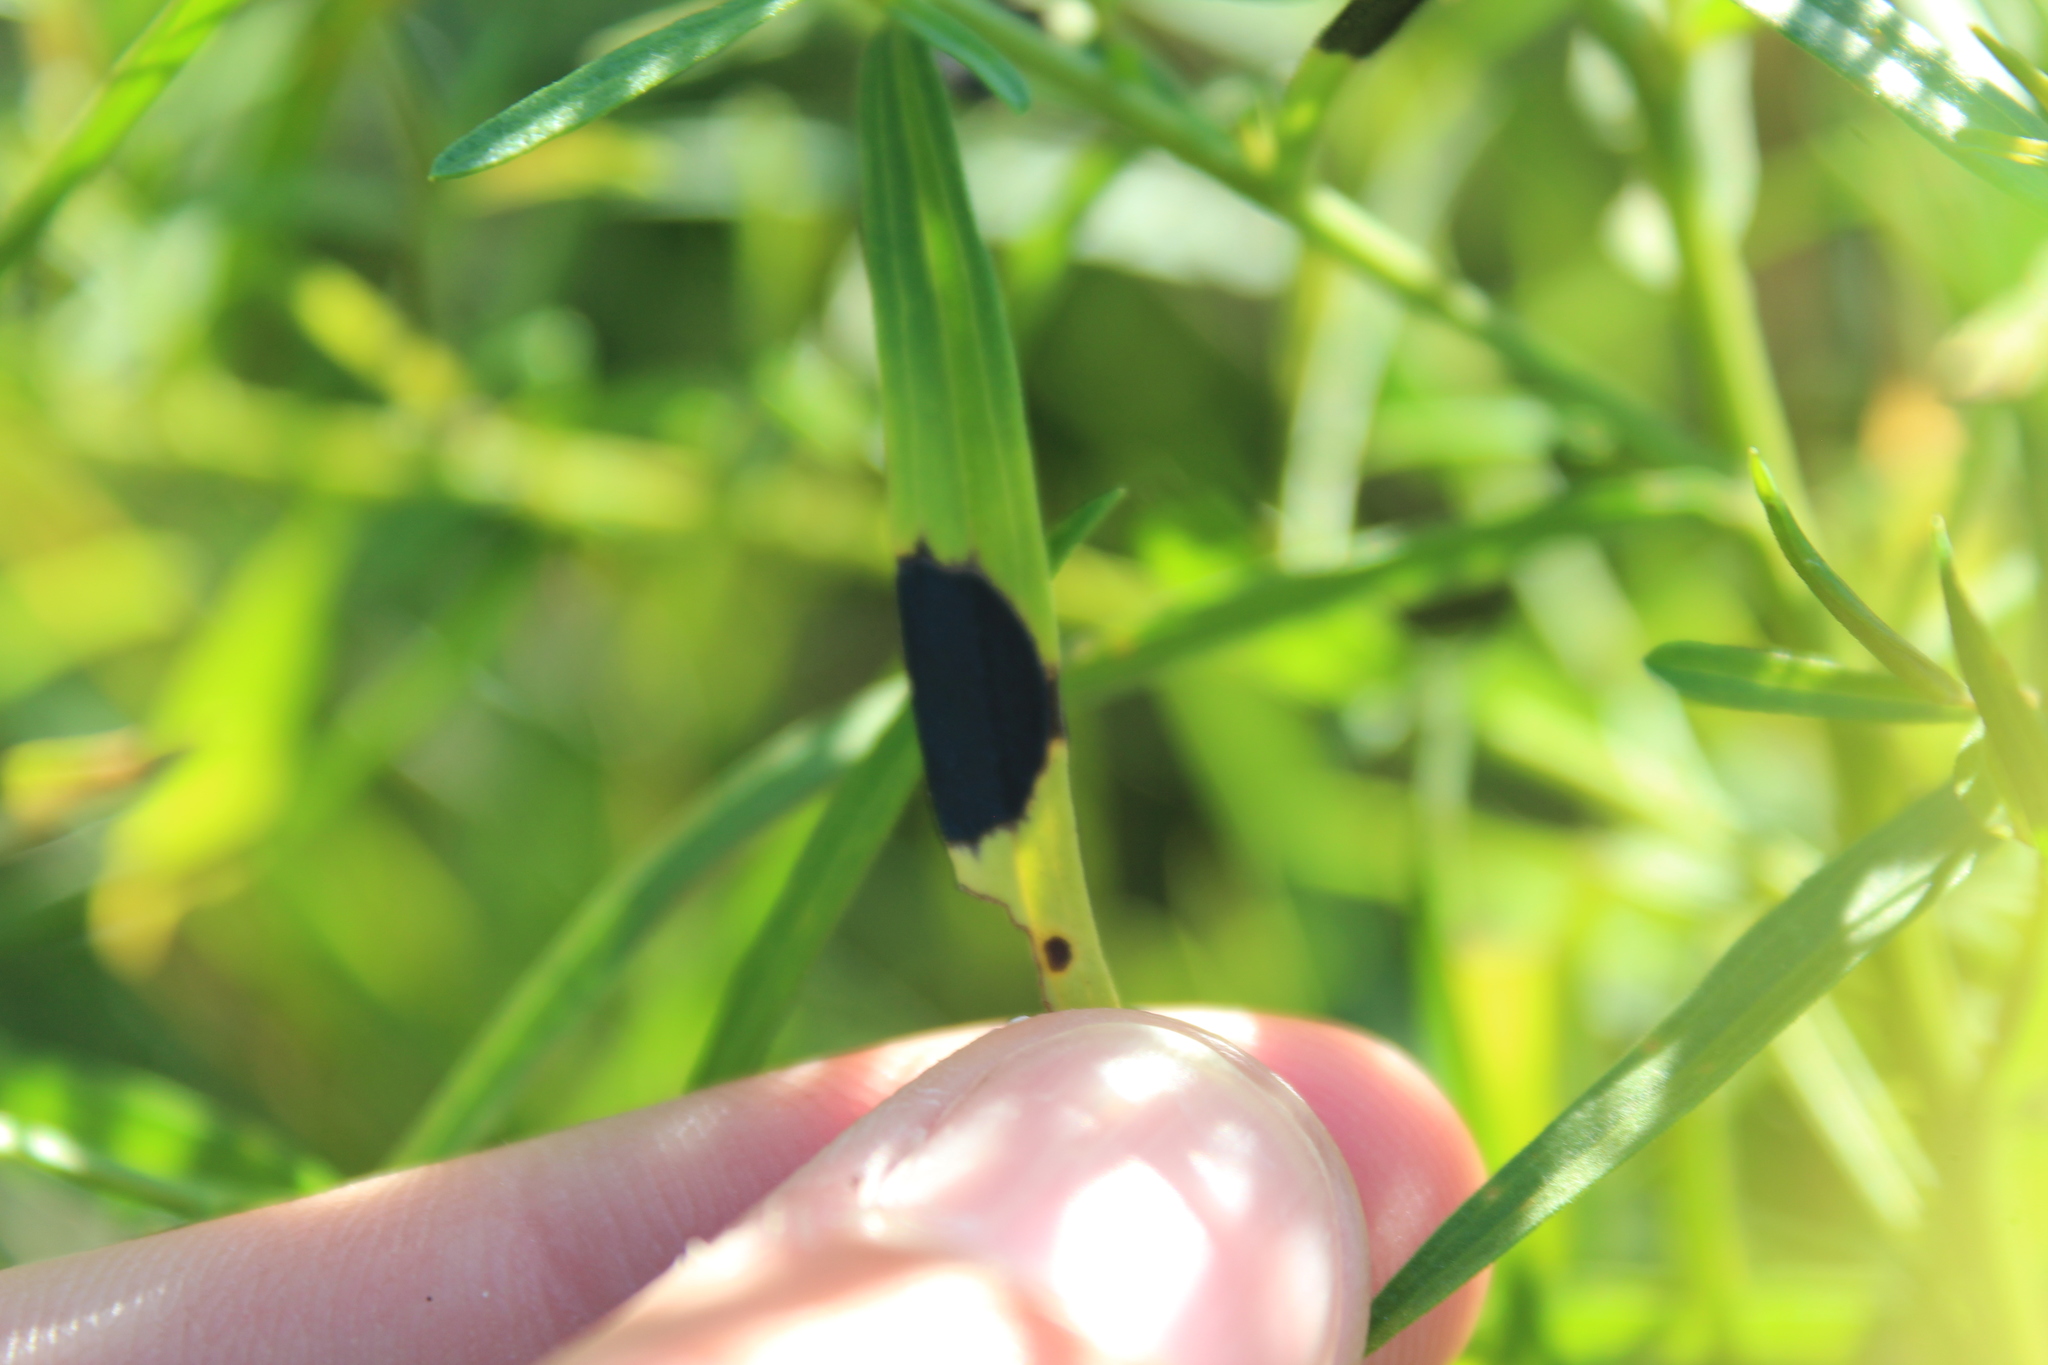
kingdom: Animalia
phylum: Arthropoda
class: Insecta
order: Diptera
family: Cecidomyiidae
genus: Asteromyia
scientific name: Asteromyia euthamiae
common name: Euthamia leaf gall midge
